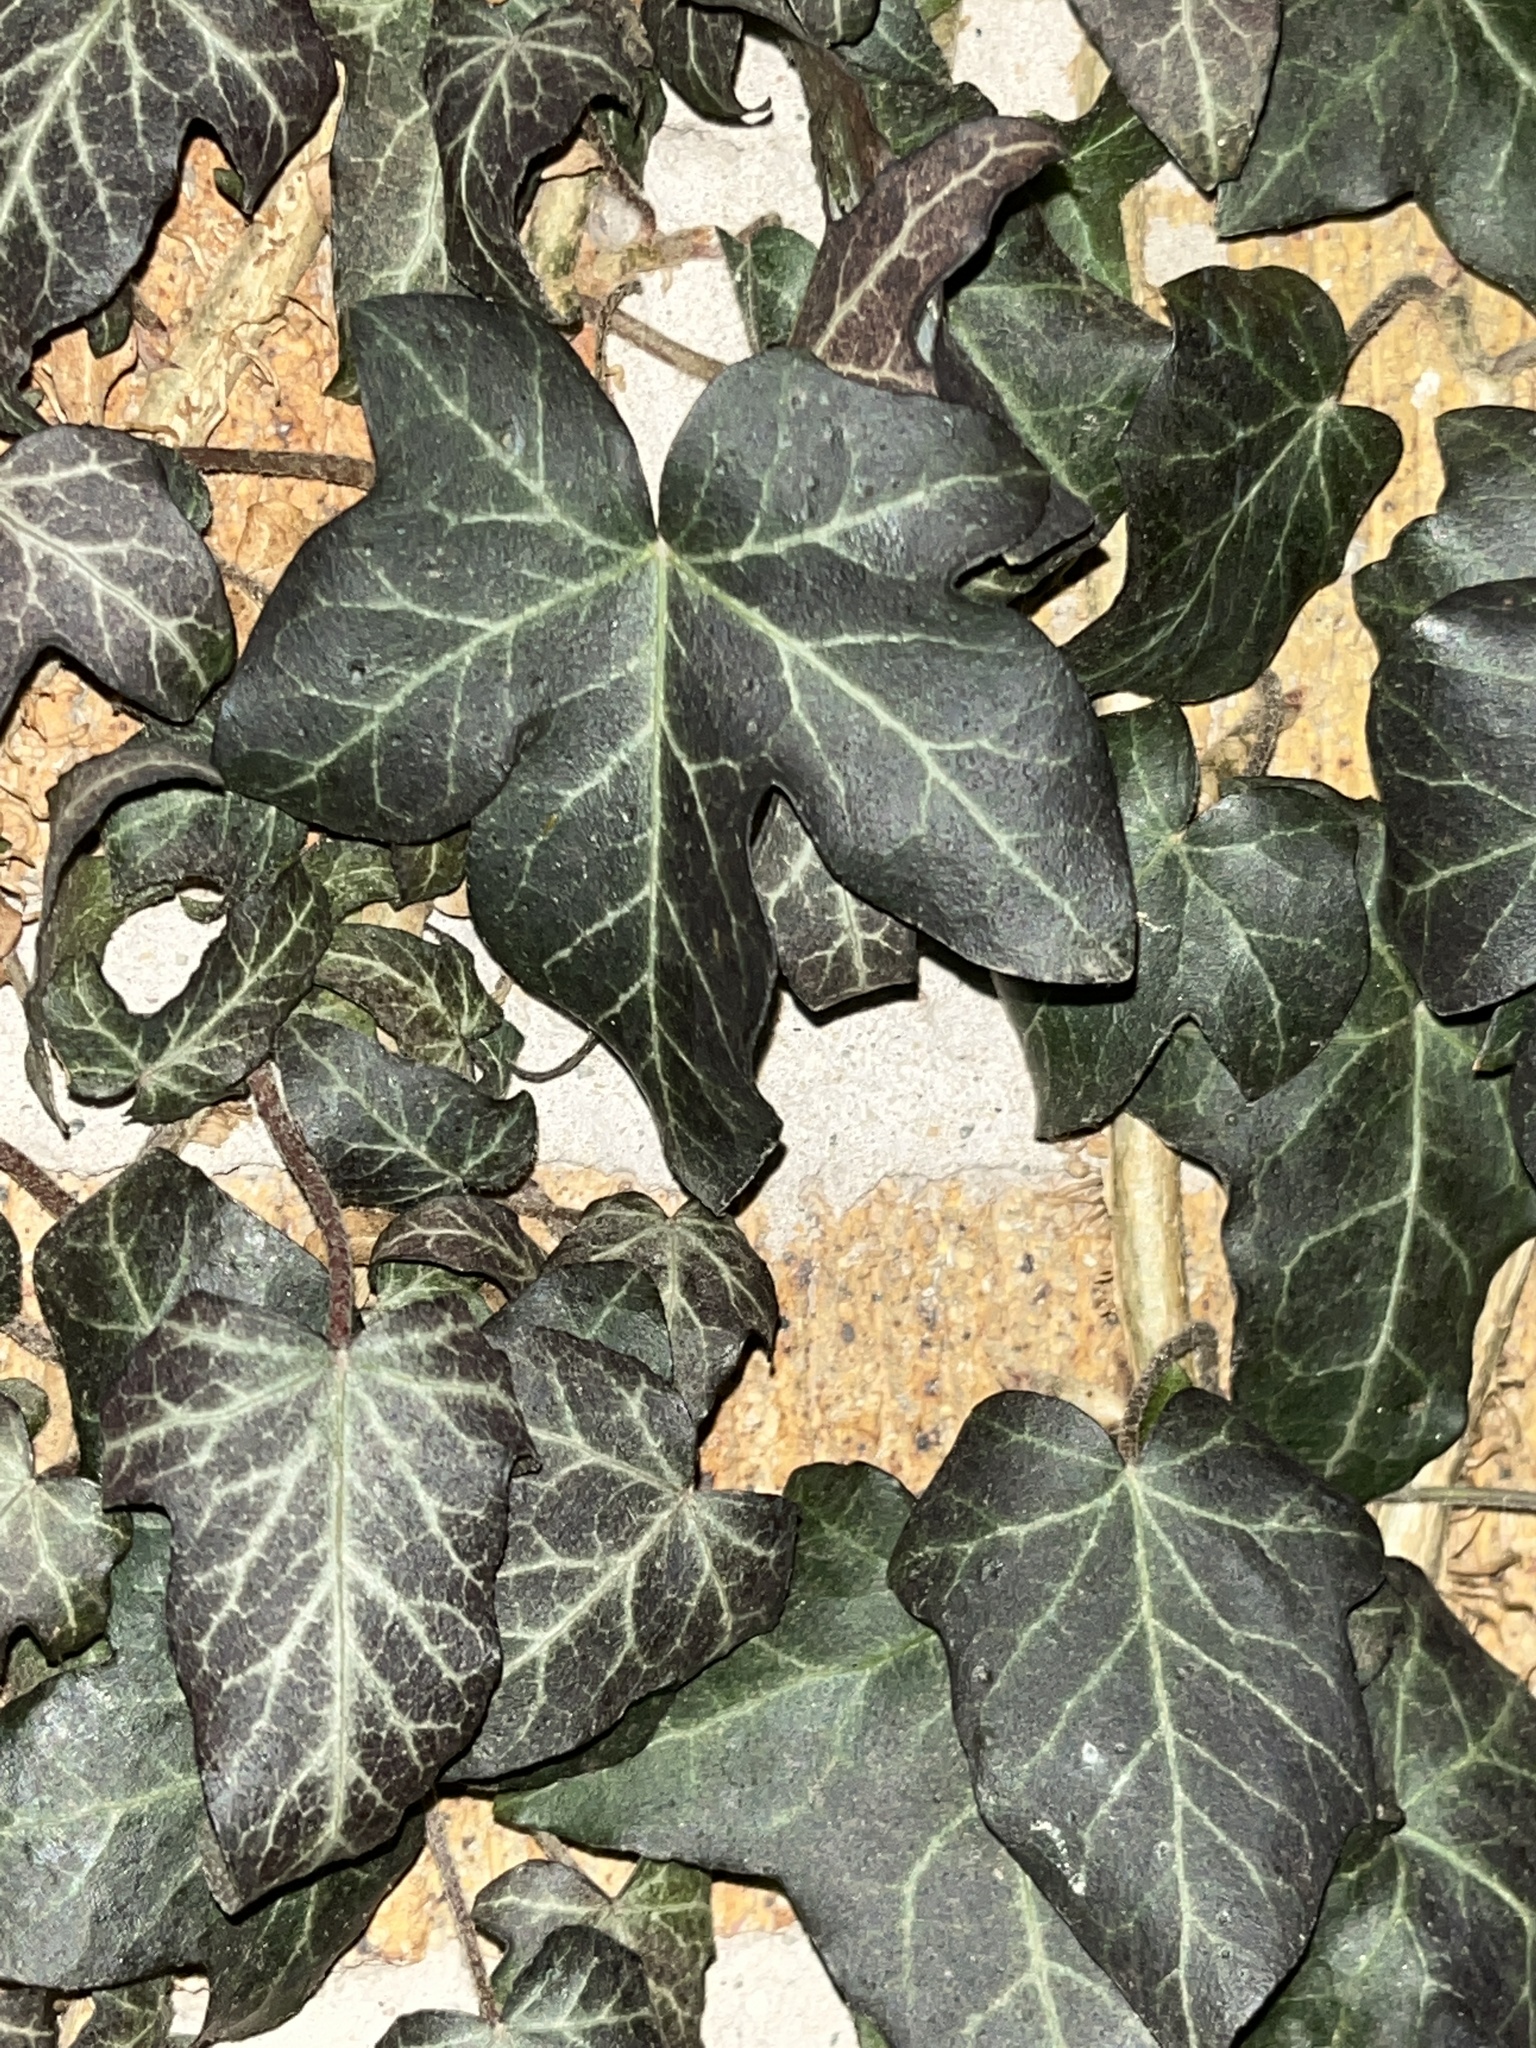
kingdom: Plantae
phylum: Tracheophyta
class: Magnoliopsida
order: Apiales
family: Araliaceae
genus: Hedera
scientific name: Hedera helix
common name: Ivy
